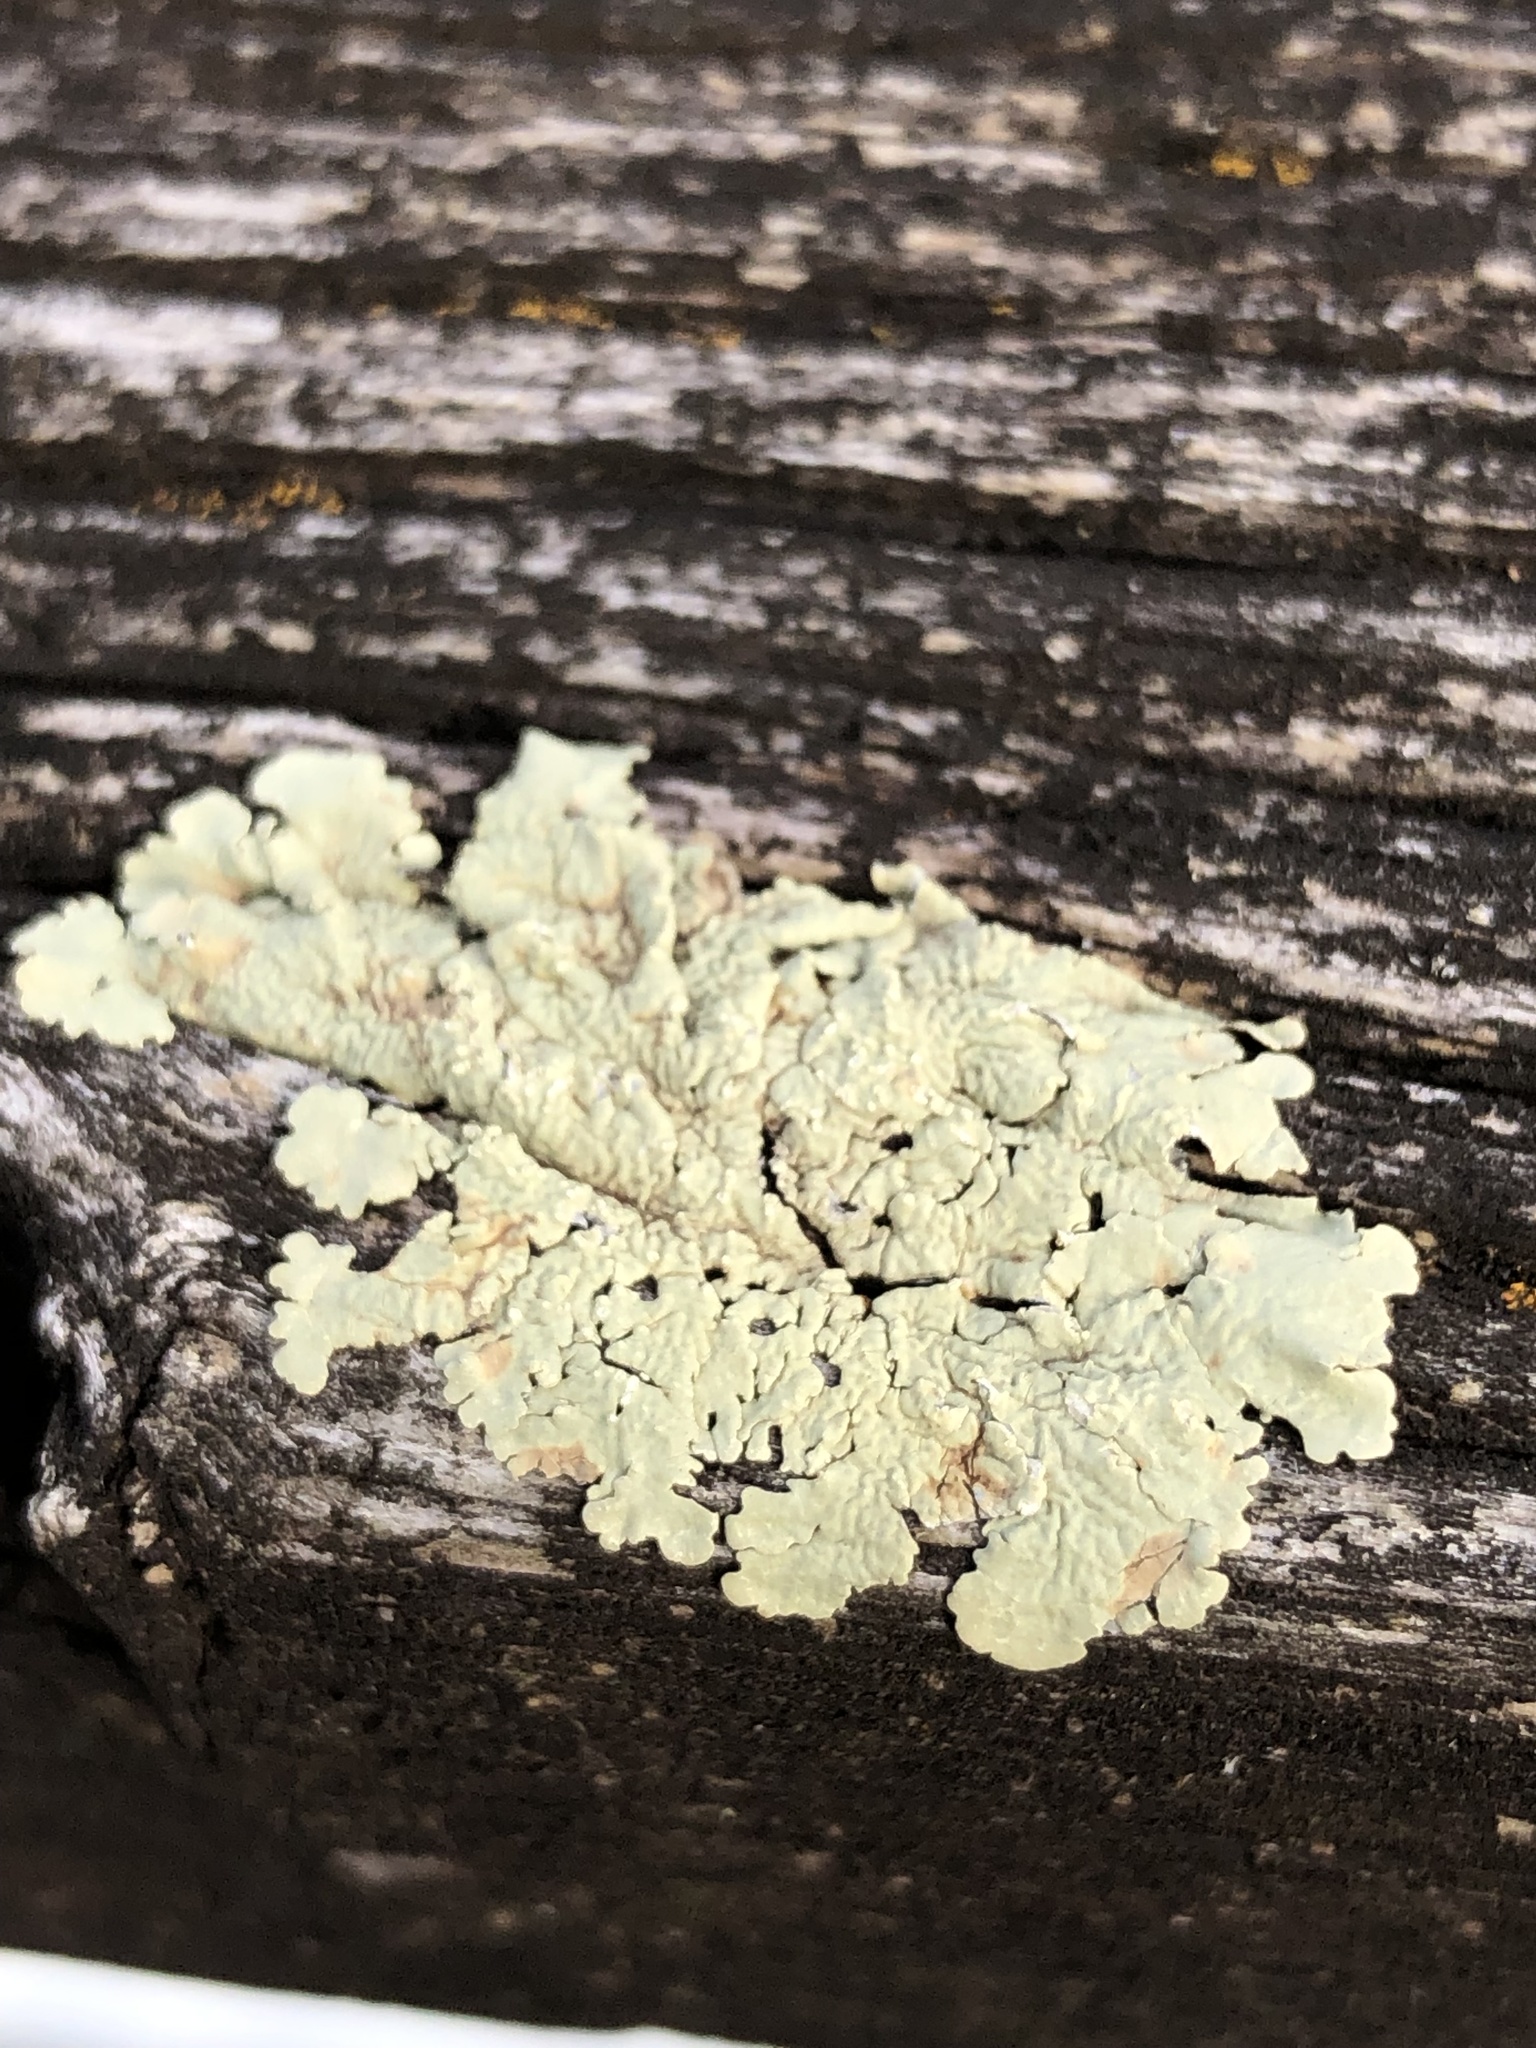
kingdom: Fungi
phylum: Ascomycota
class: Lecanoromycetes
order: Lecanorales
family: Parmeliaceae
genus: Flavoparmelia
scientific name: Flavoparmelia caperata
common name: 40-mile per hour lichen
